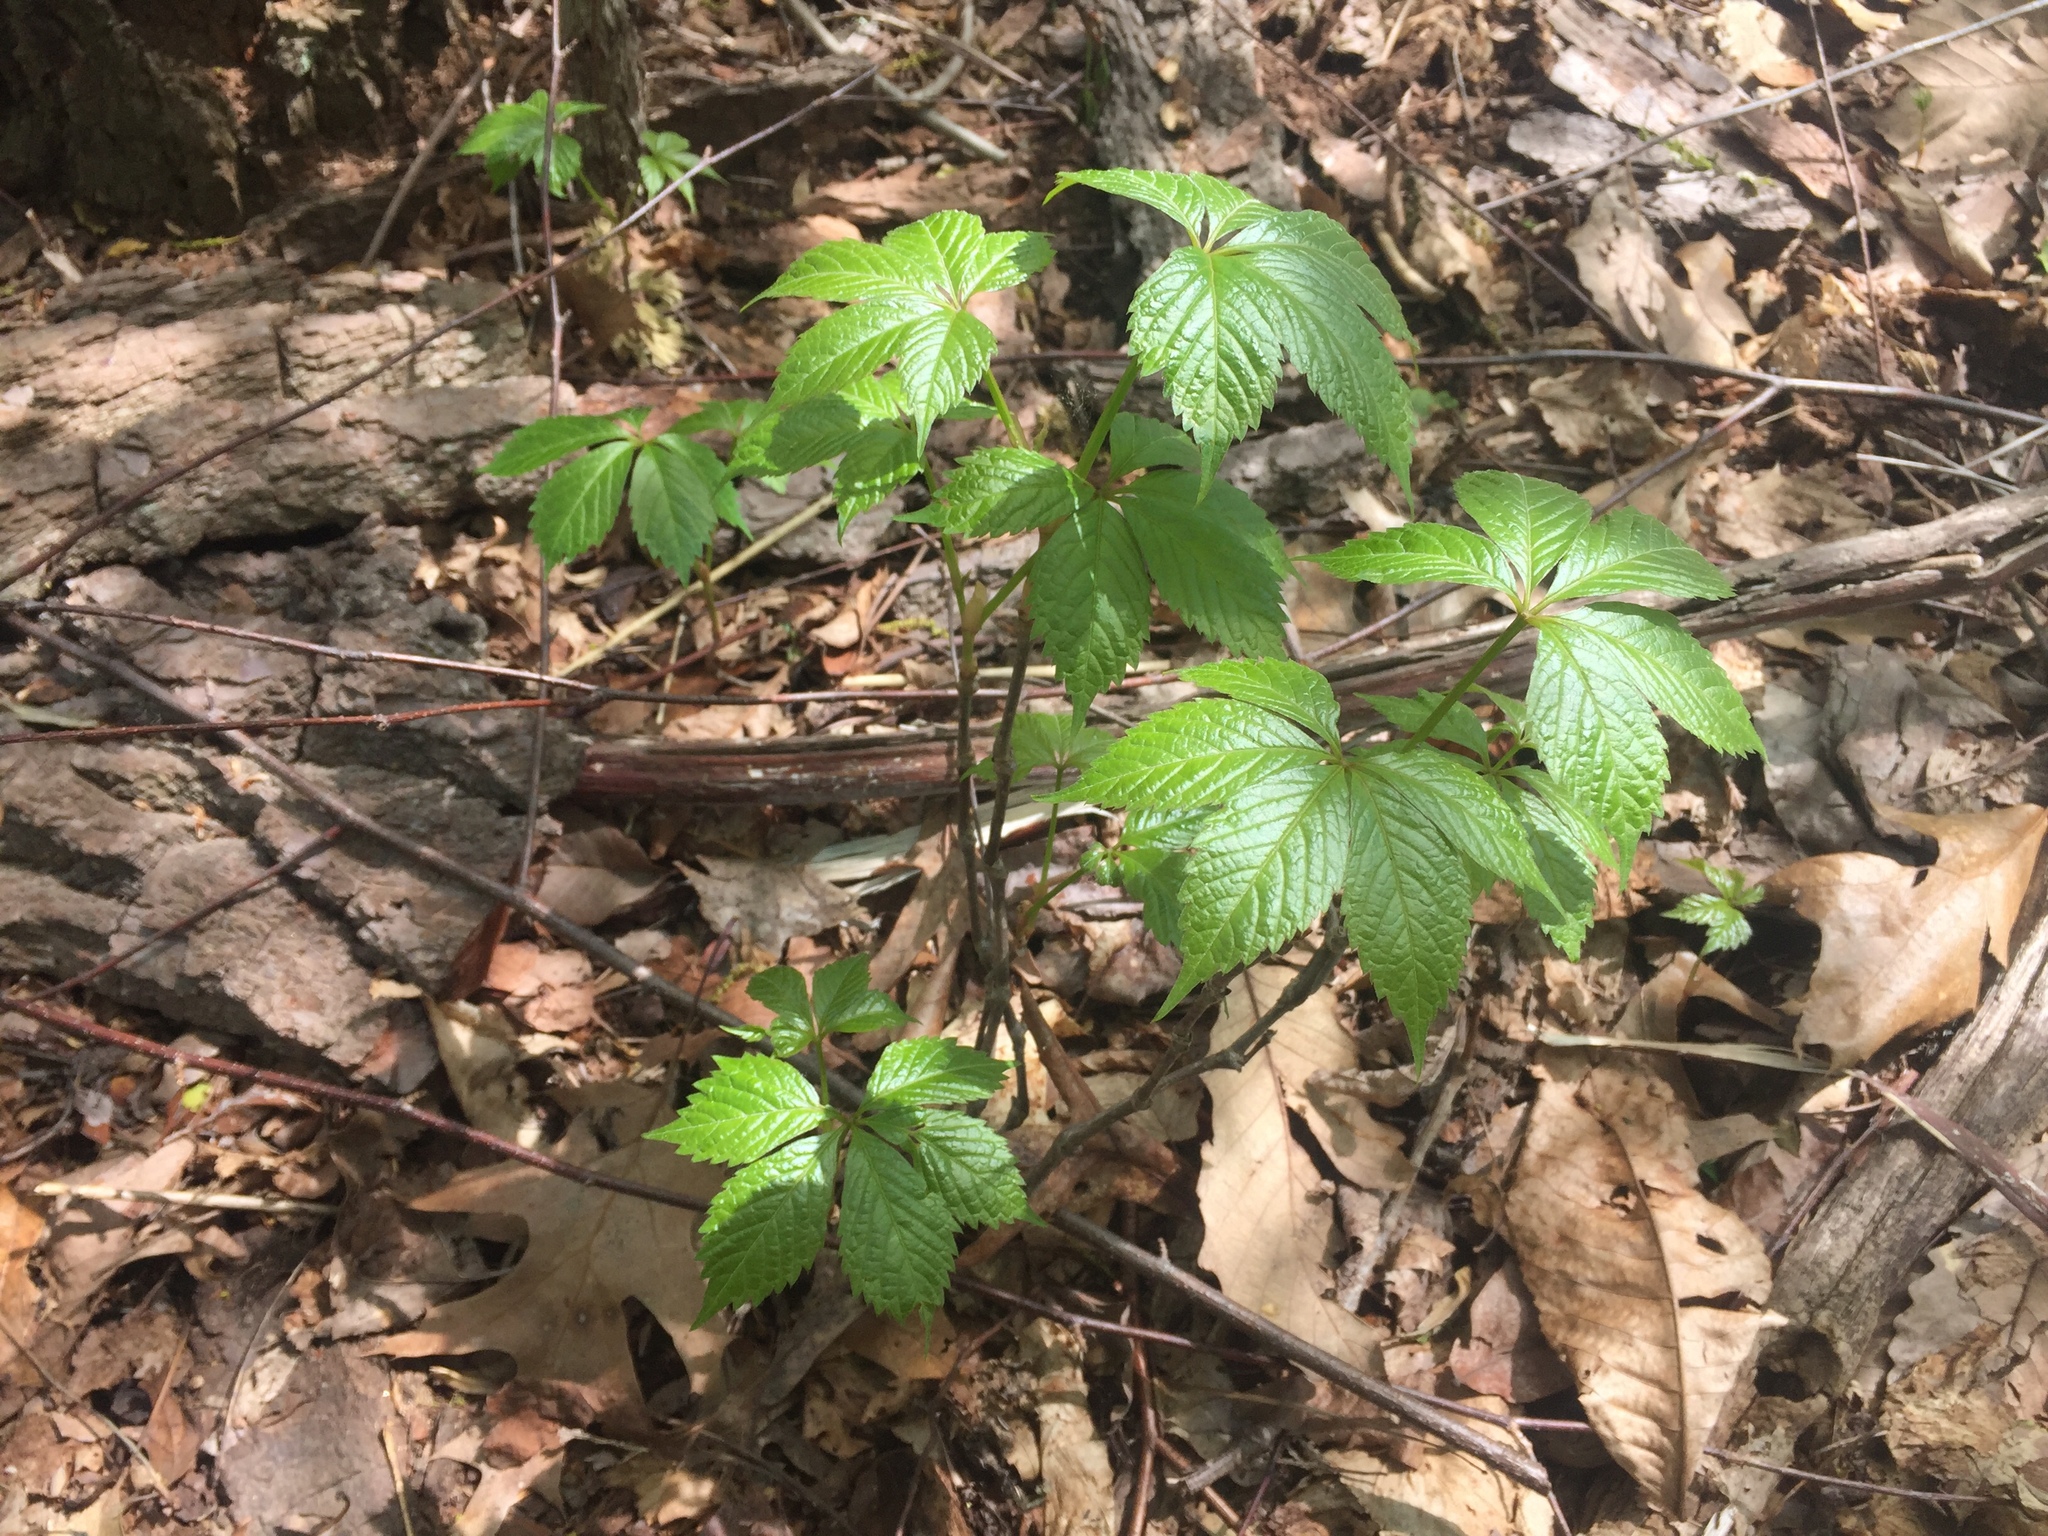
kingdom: Plantae
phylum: Tracheophyta
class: Magnoliopsida
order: Vitales
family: Vitaceae
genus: Parthenocissus
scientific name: Parthenocissus quinquefolia
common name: Virginia-creeper
